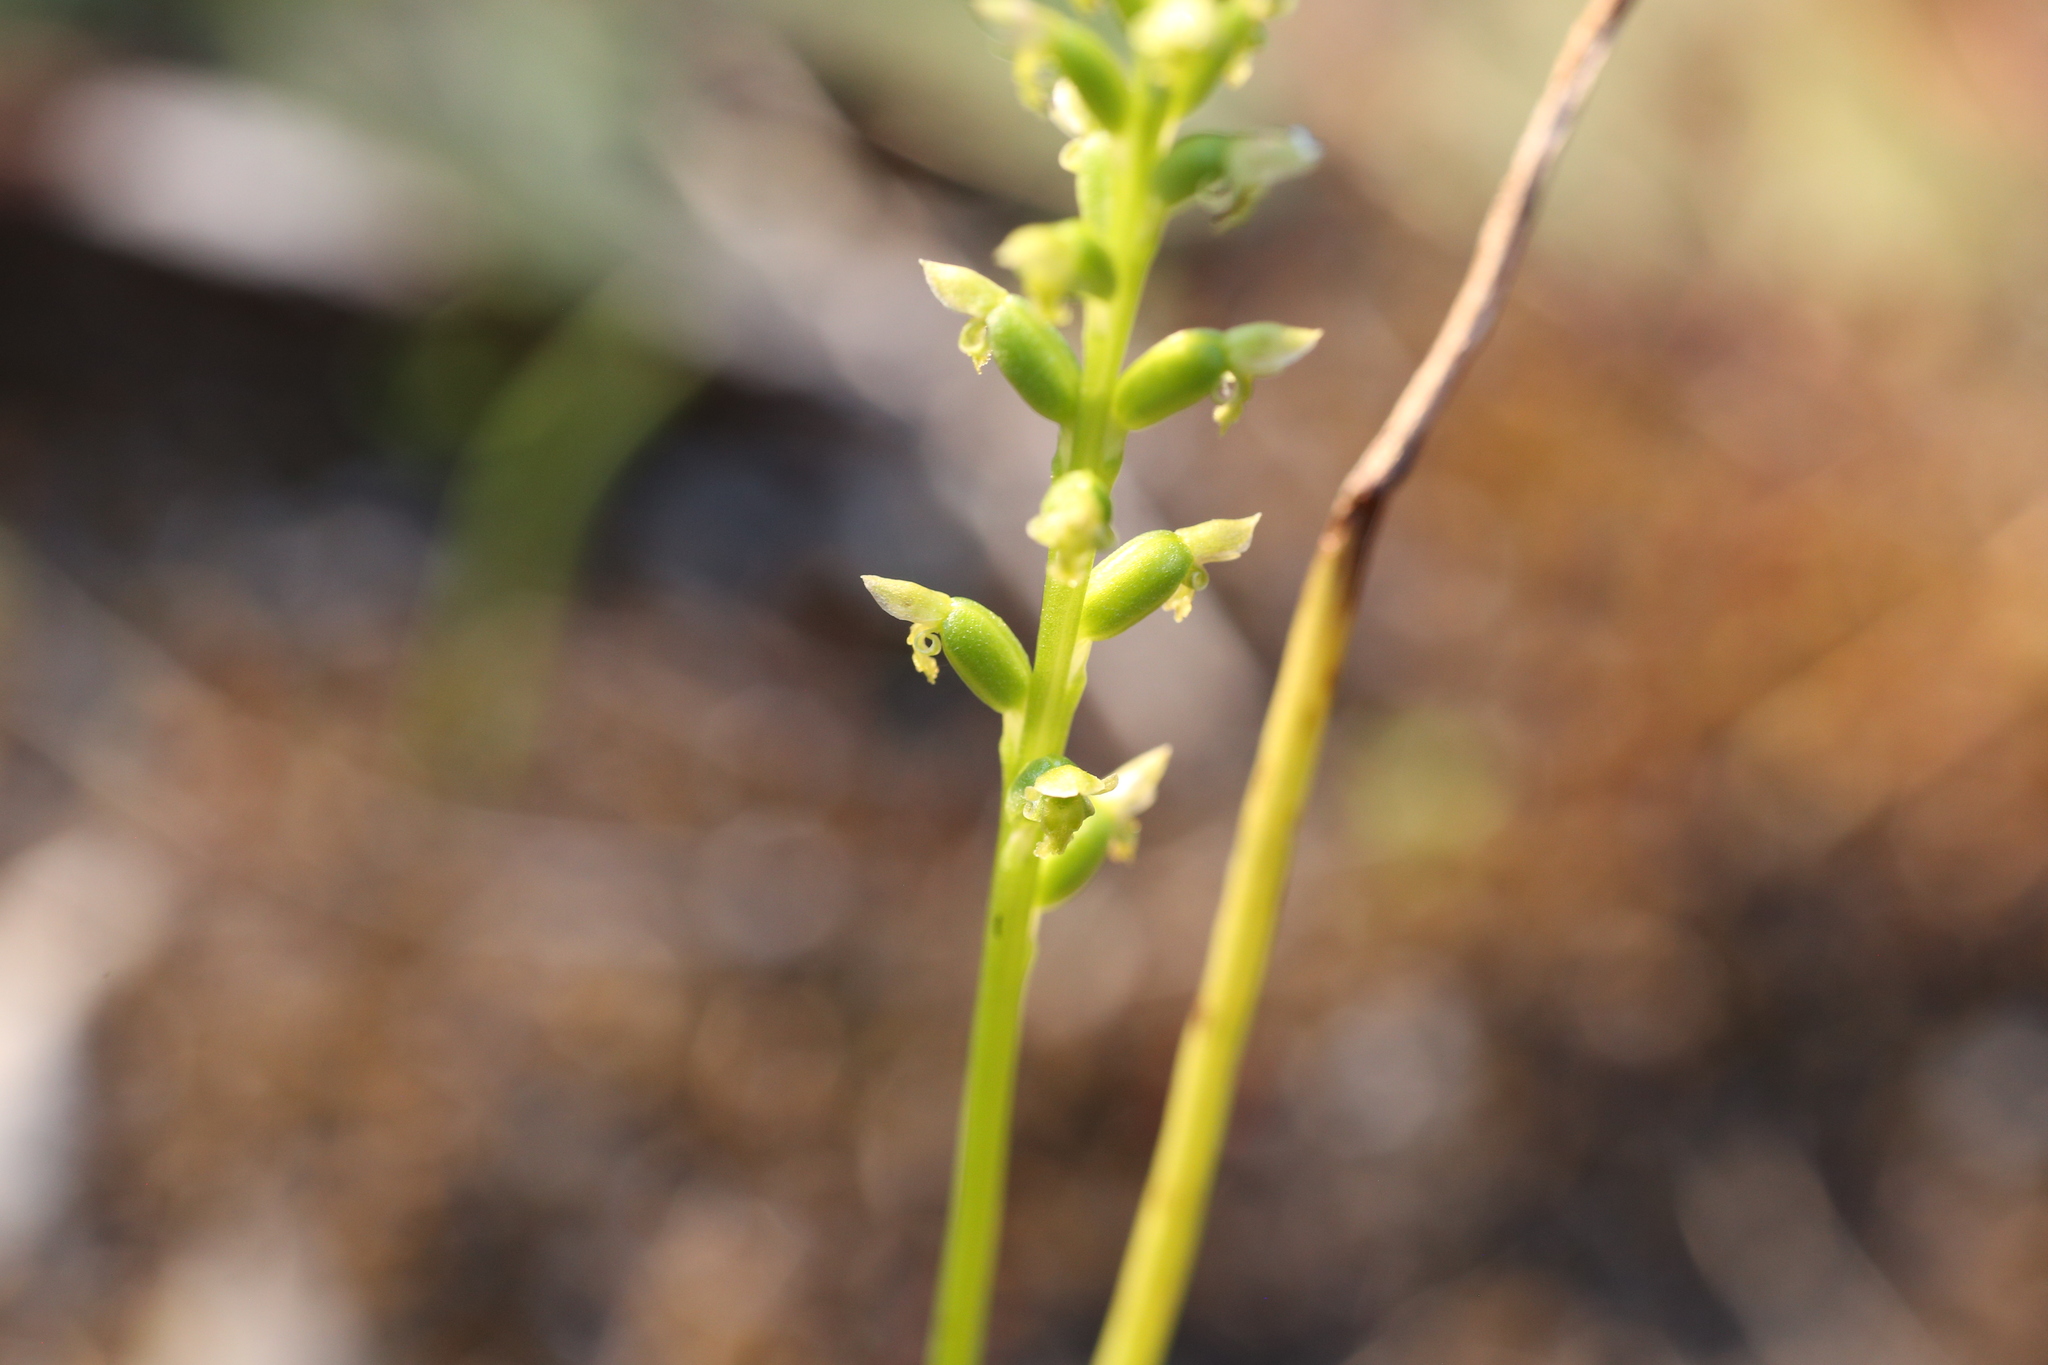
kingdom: Plantae
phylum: Tracheophyta
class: Liliopsida
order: Asparagales
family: Orchidaceae
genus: Microtis
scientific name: Microtis media
